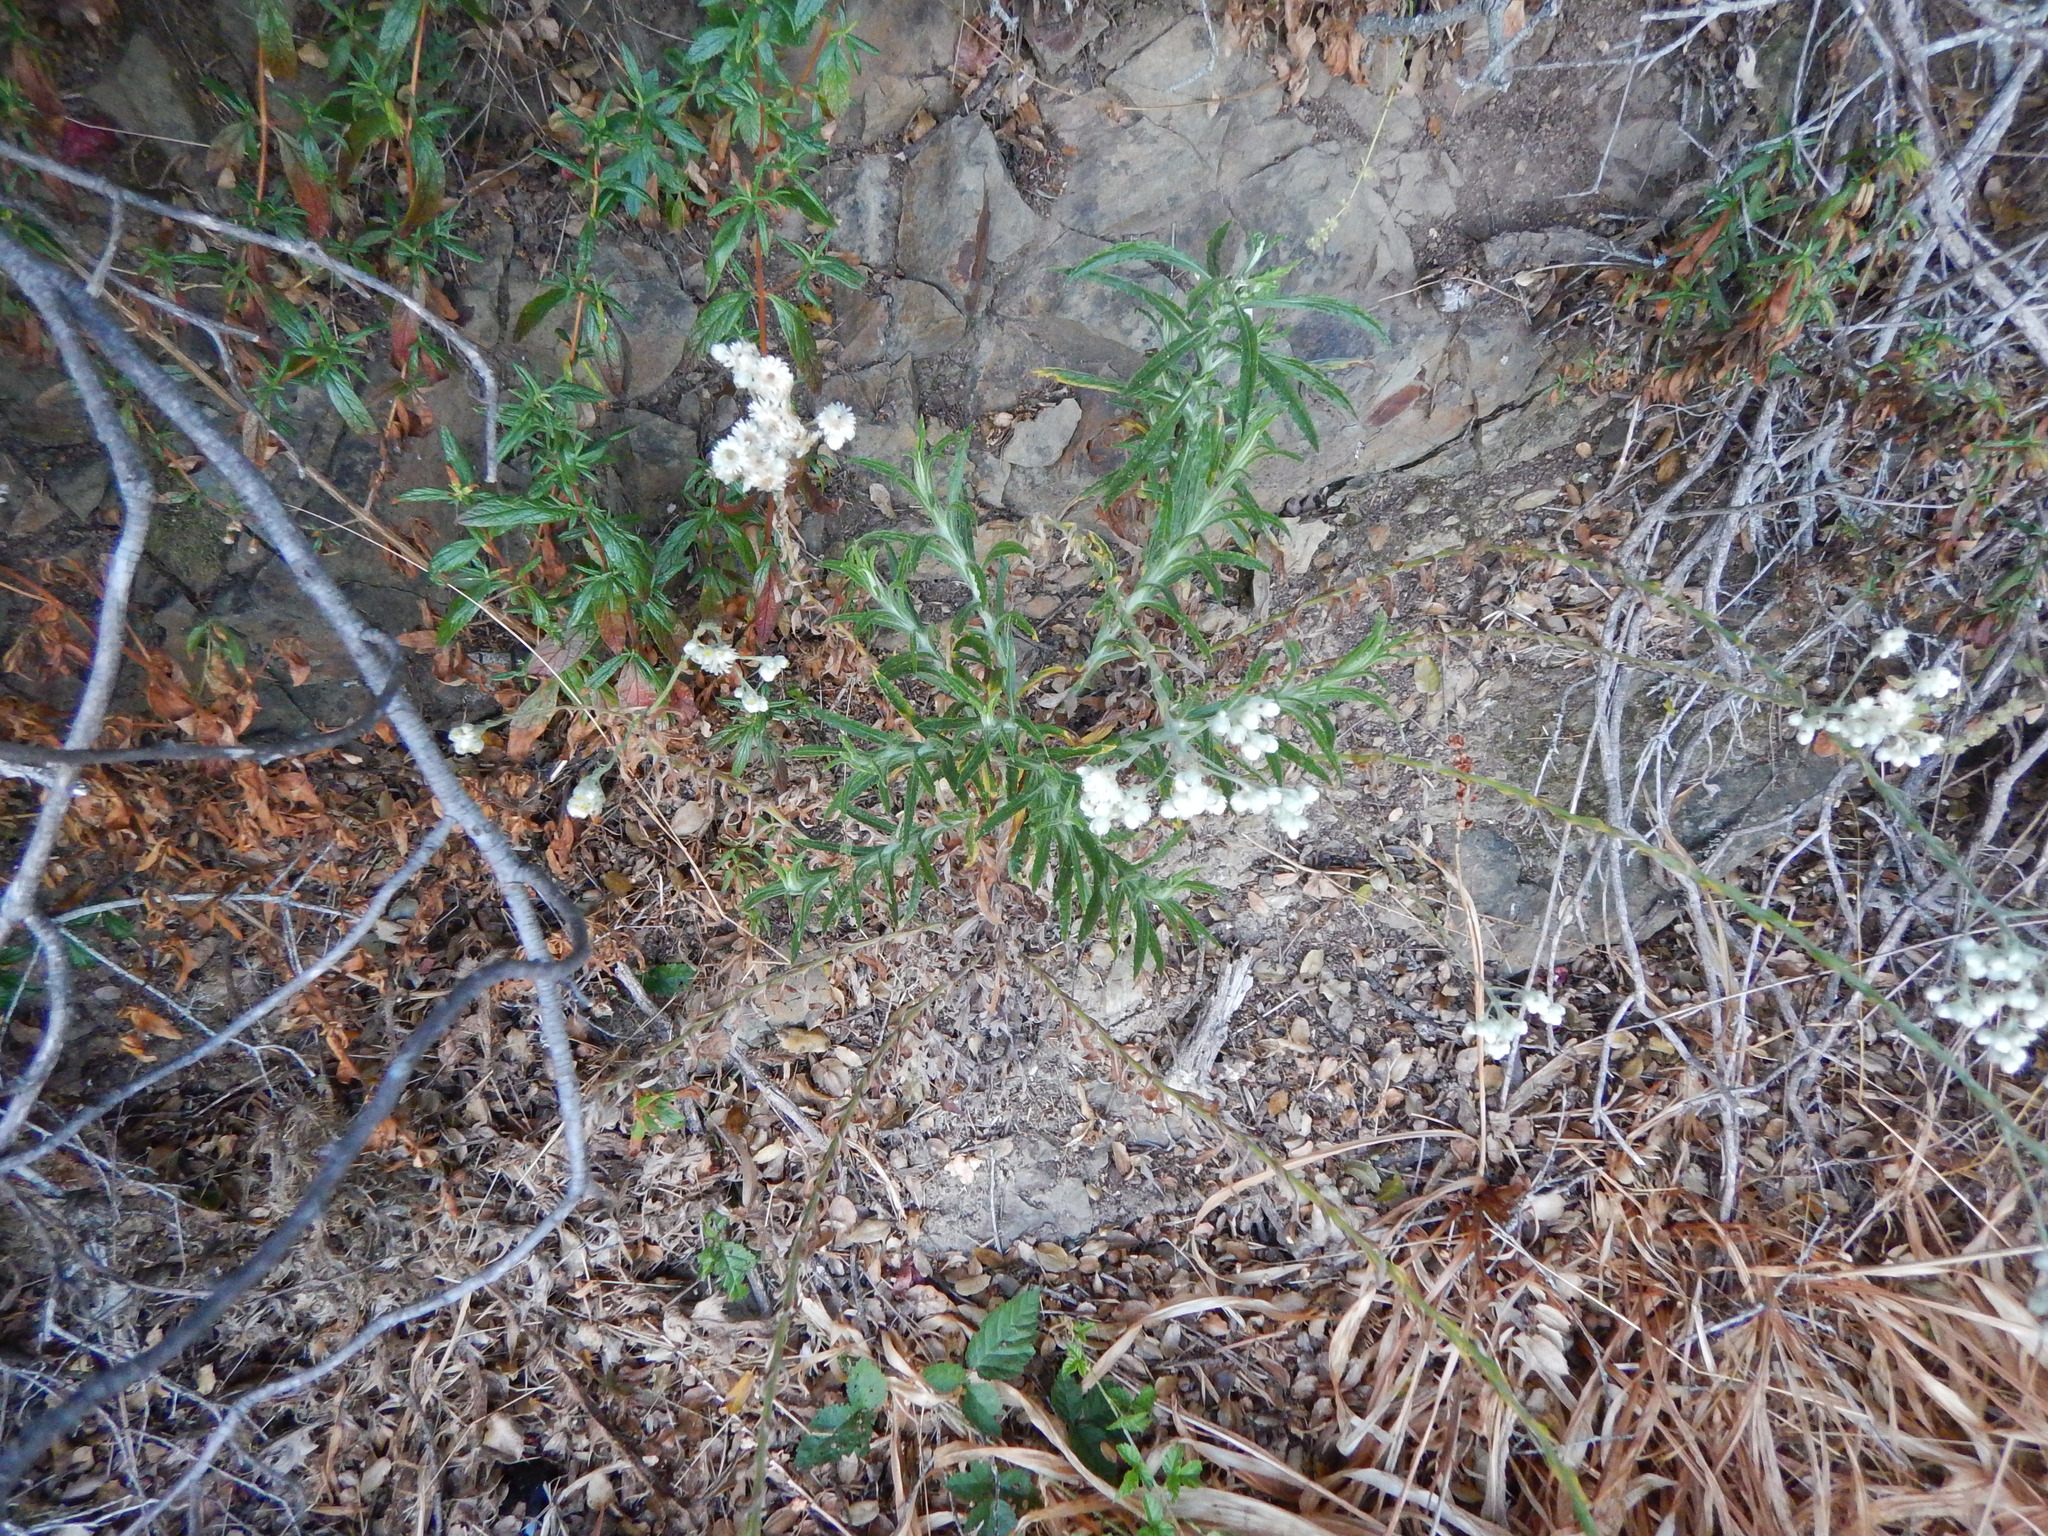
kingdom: Plantae
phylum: Tracheophyta
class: Magnoliopsida
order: Asterales
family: Asteraceae
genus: Pseudognaphalium
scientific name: Pseudognaphalium californicum
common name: California rabbit-tobacco
